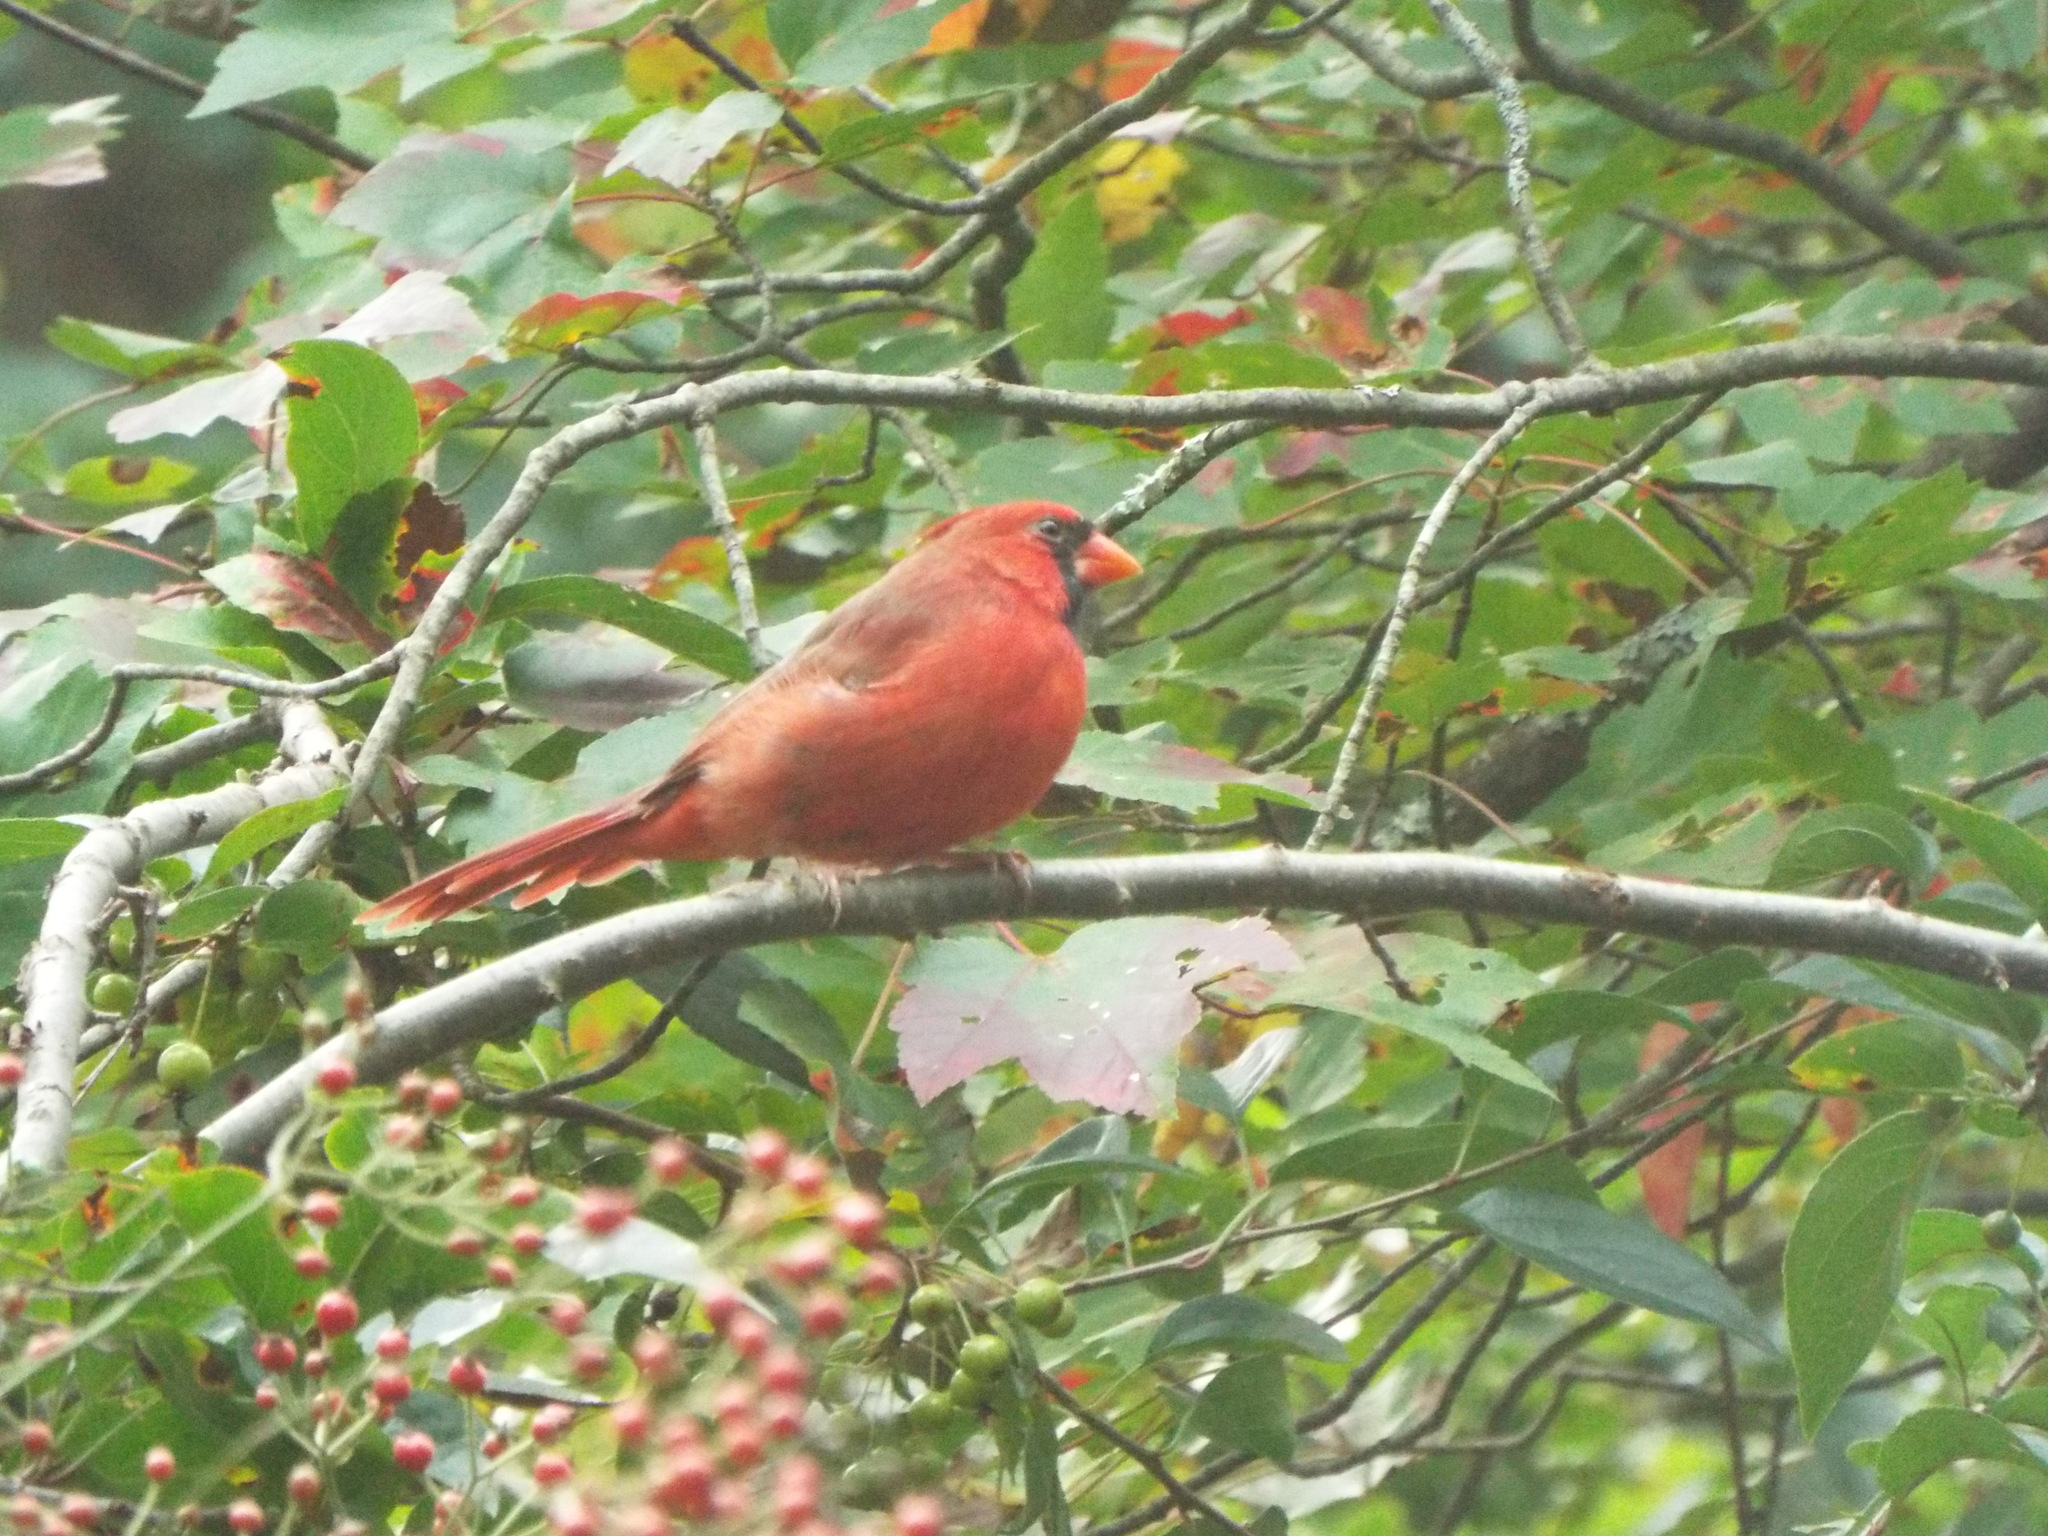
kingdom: Animalia
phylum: Chordata
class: Aves
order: Passeriformes
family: Cardinalidae
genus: Cardinalis
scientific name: Cardinalis cardinalis
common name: Northern cardinal
